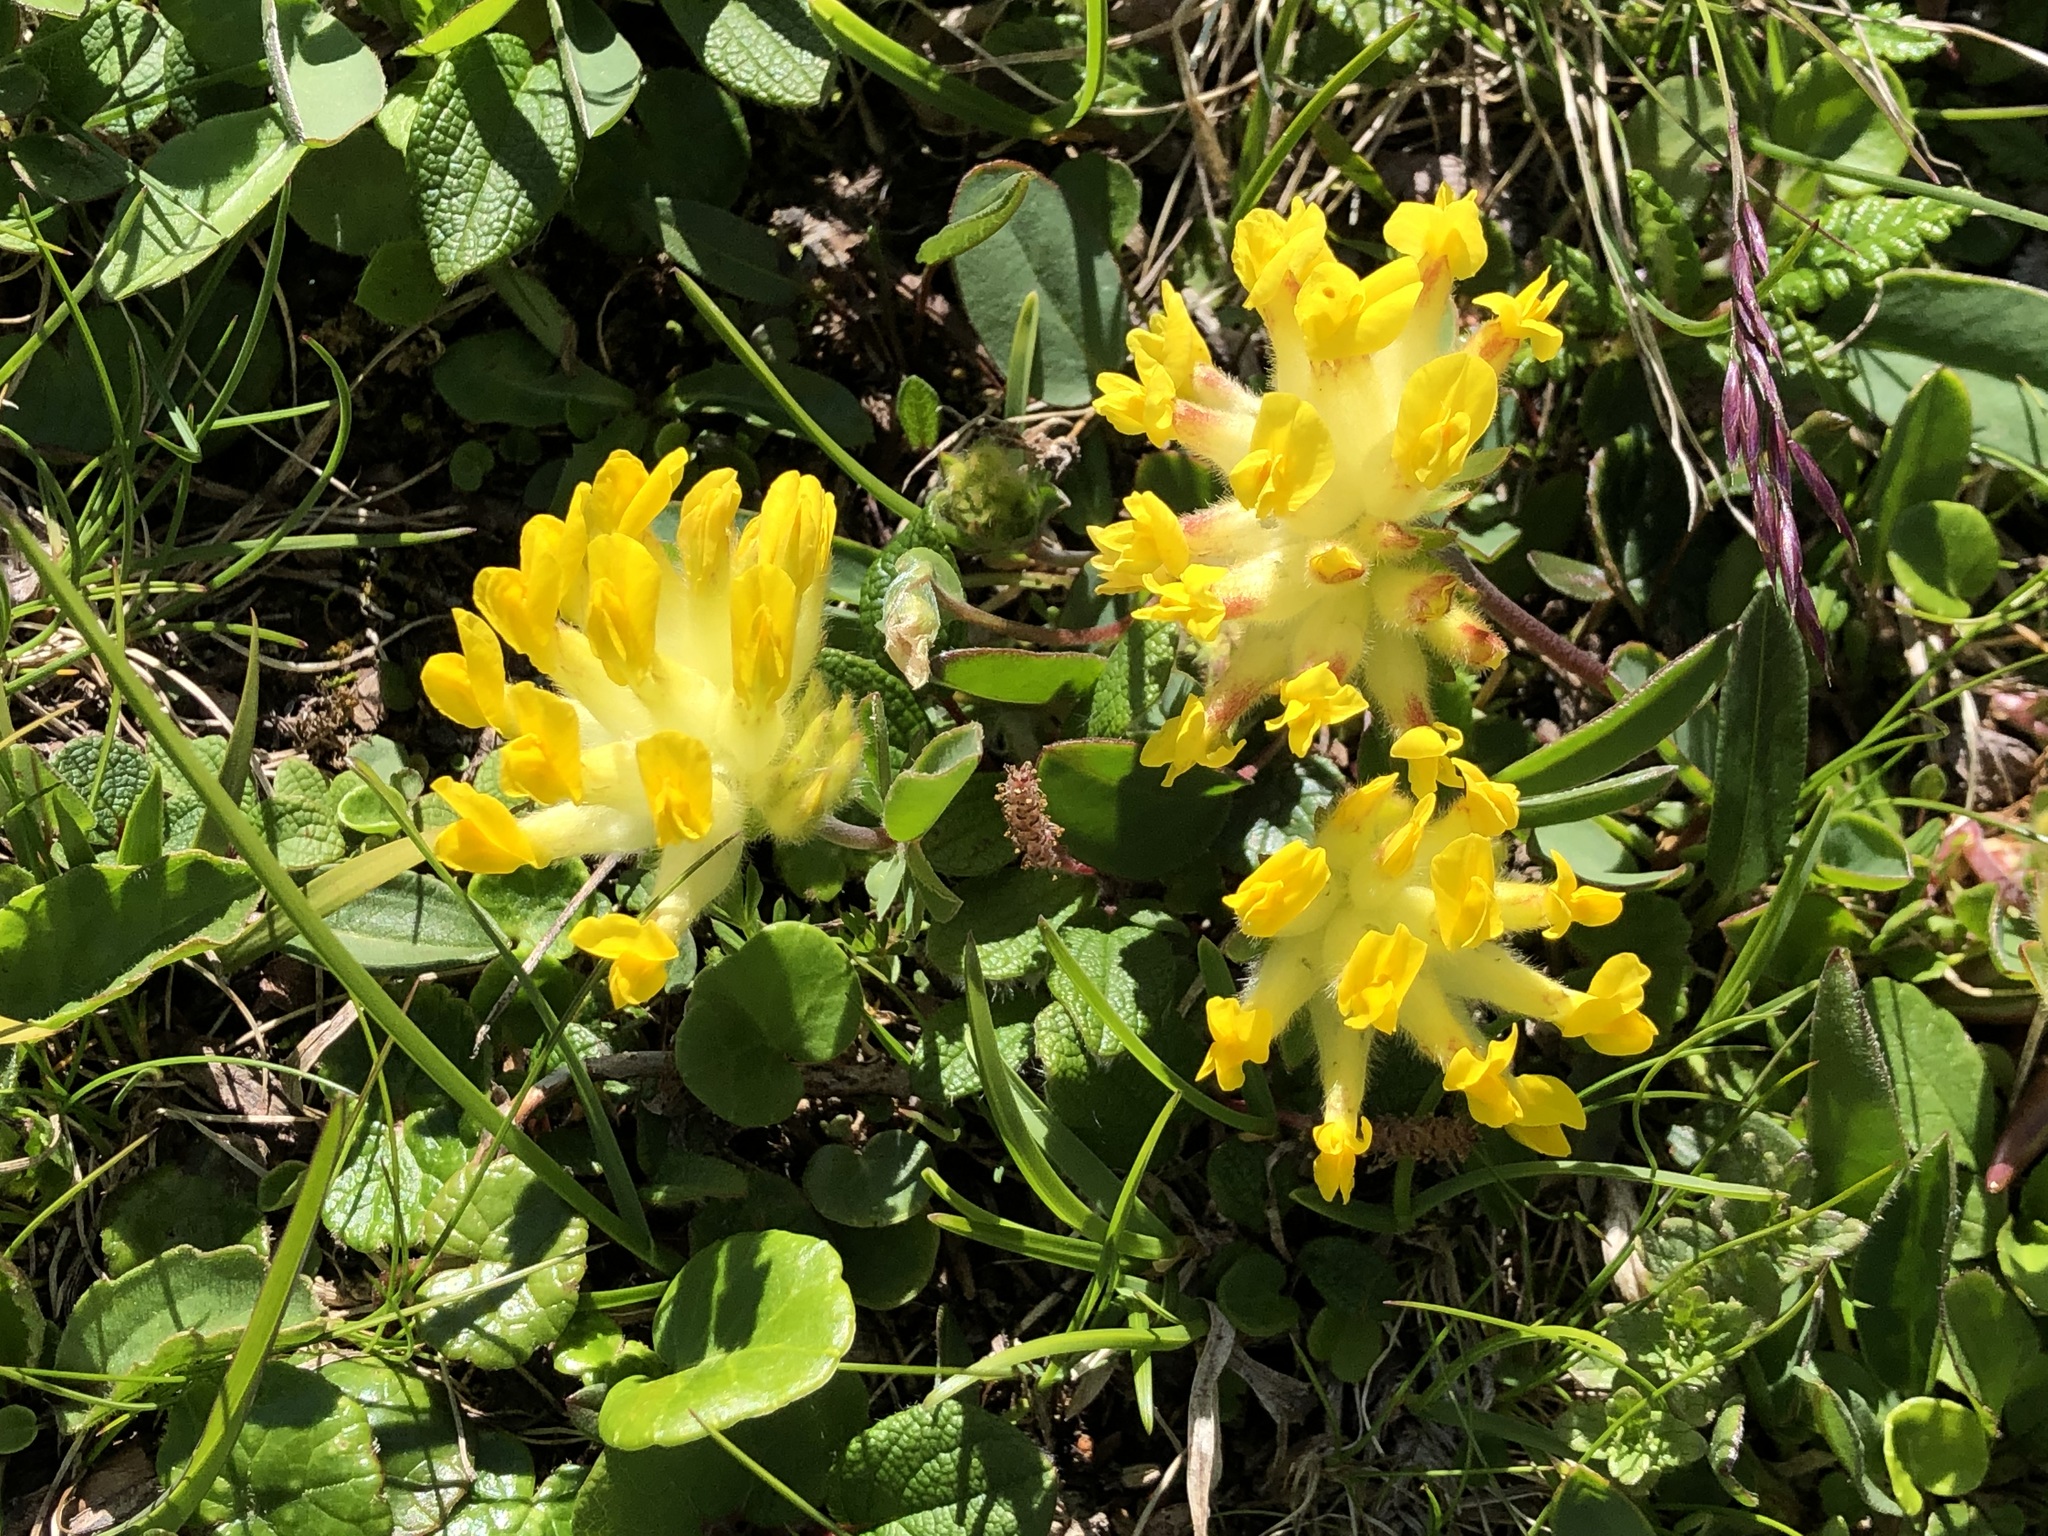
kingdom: Plantae
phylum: Tracheophyta
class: Magnoliopsida
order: Fabales
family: Fabaceae
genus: Anthyllis
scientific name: Anthyllis vulneraria
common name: Kidney vetch
